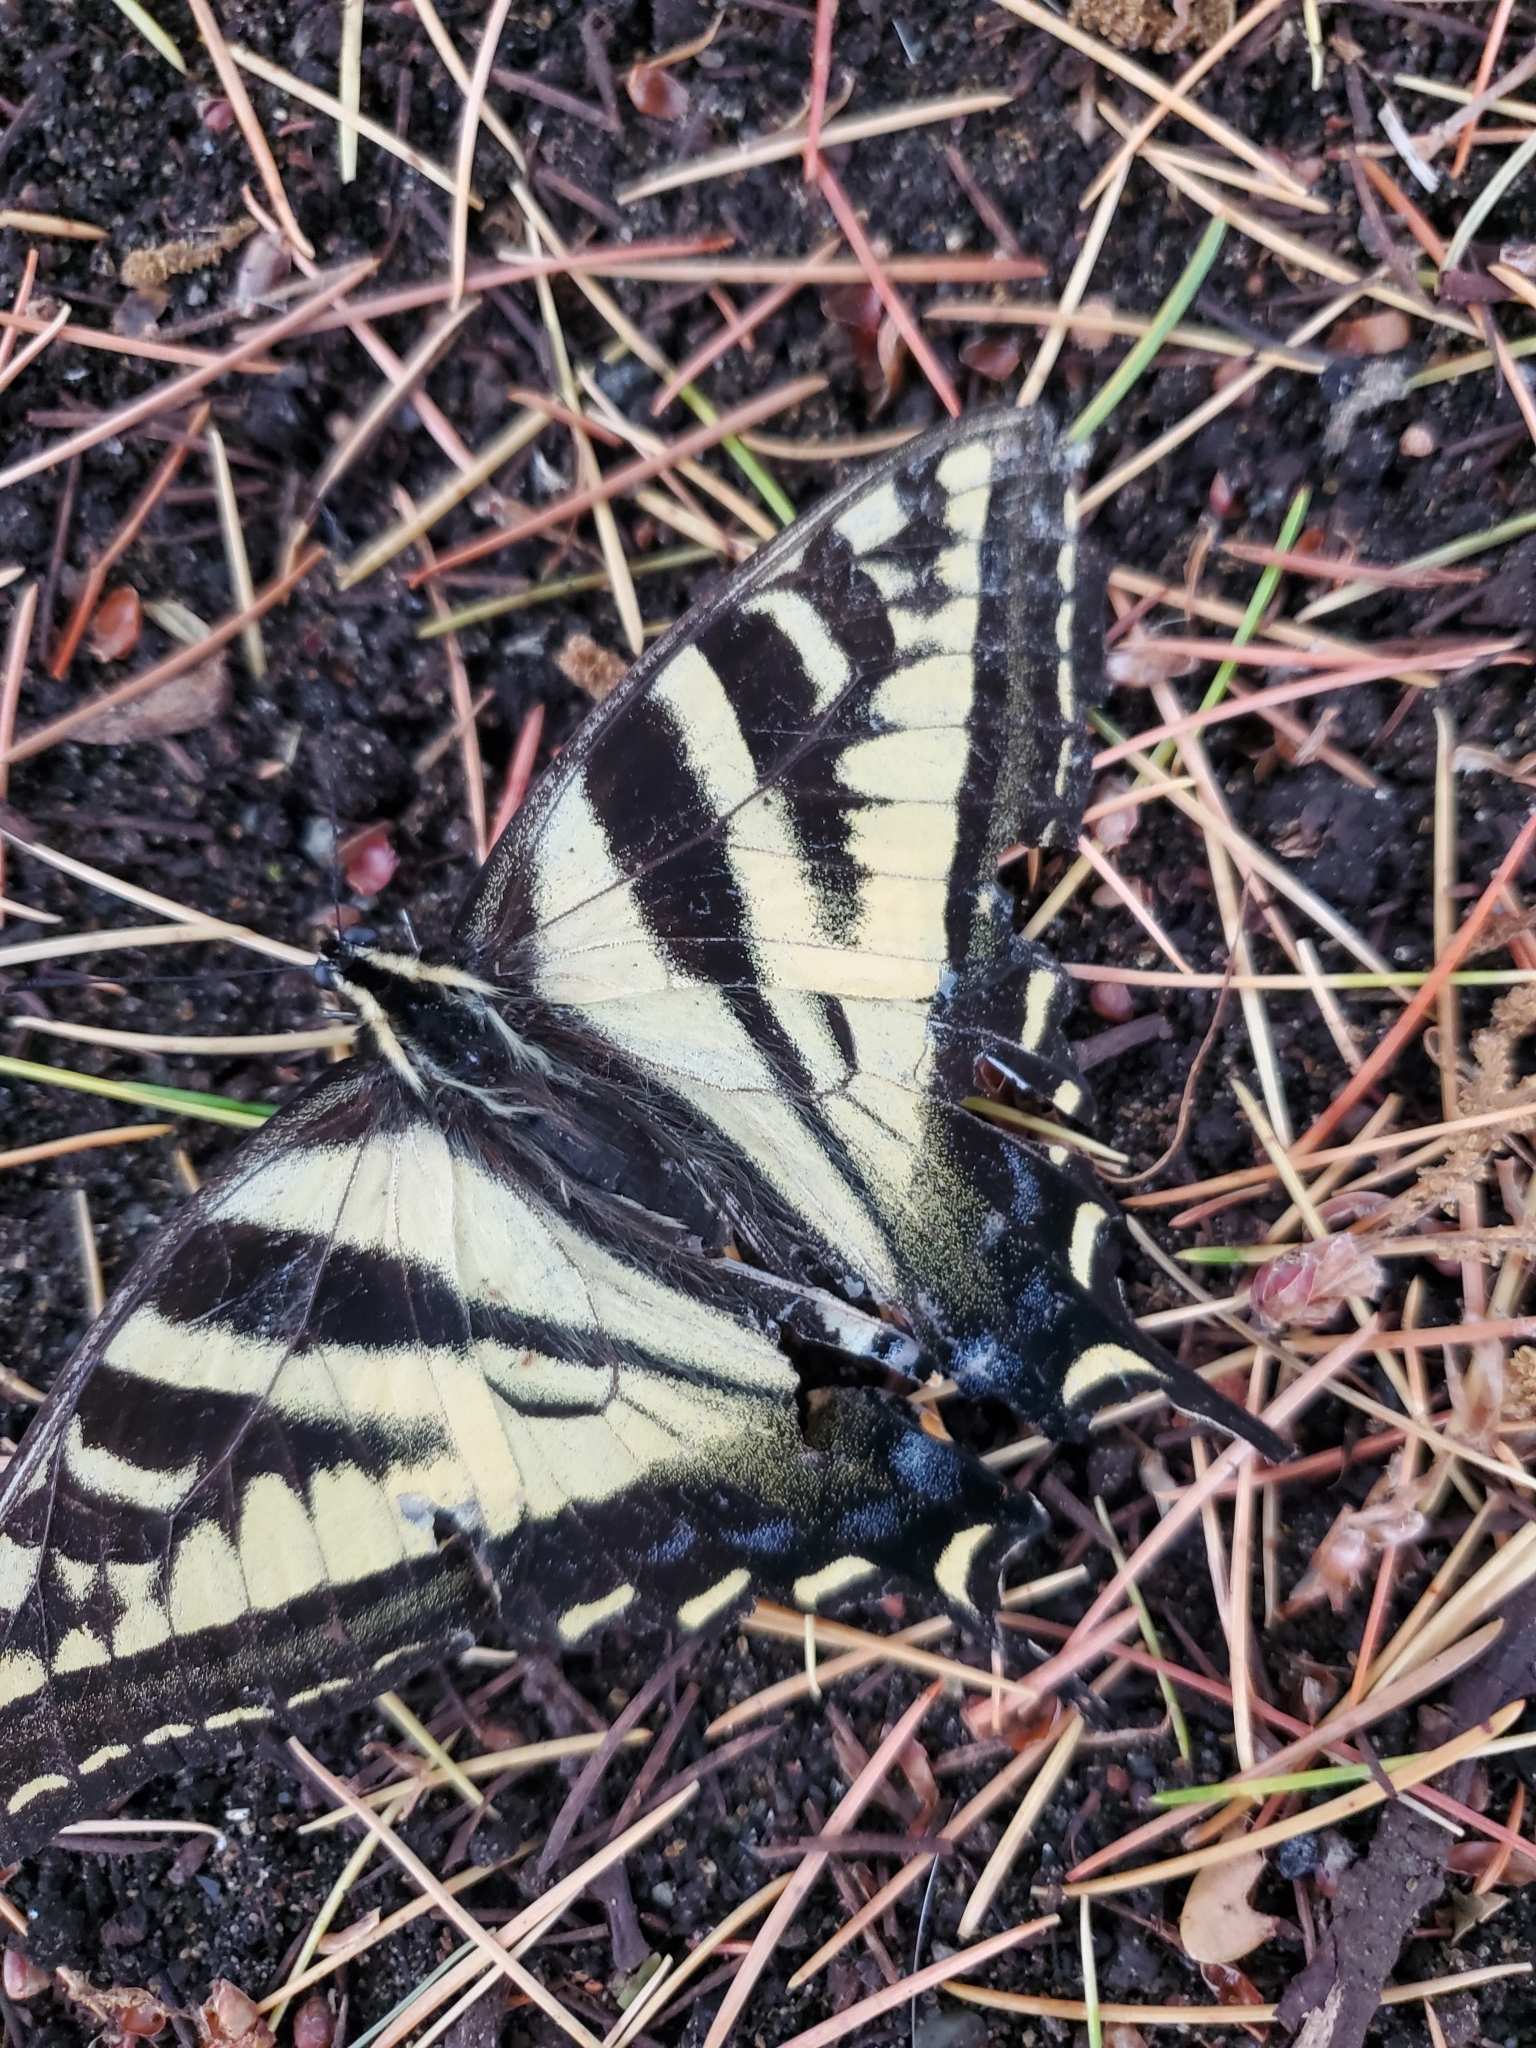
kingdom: Animalia
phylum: Arthropoda
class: Insecta
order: Lepidoptera
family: Papilionidae
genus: Papilio
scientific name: Papilio eurymedon
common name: Pale tiger swallowtail
